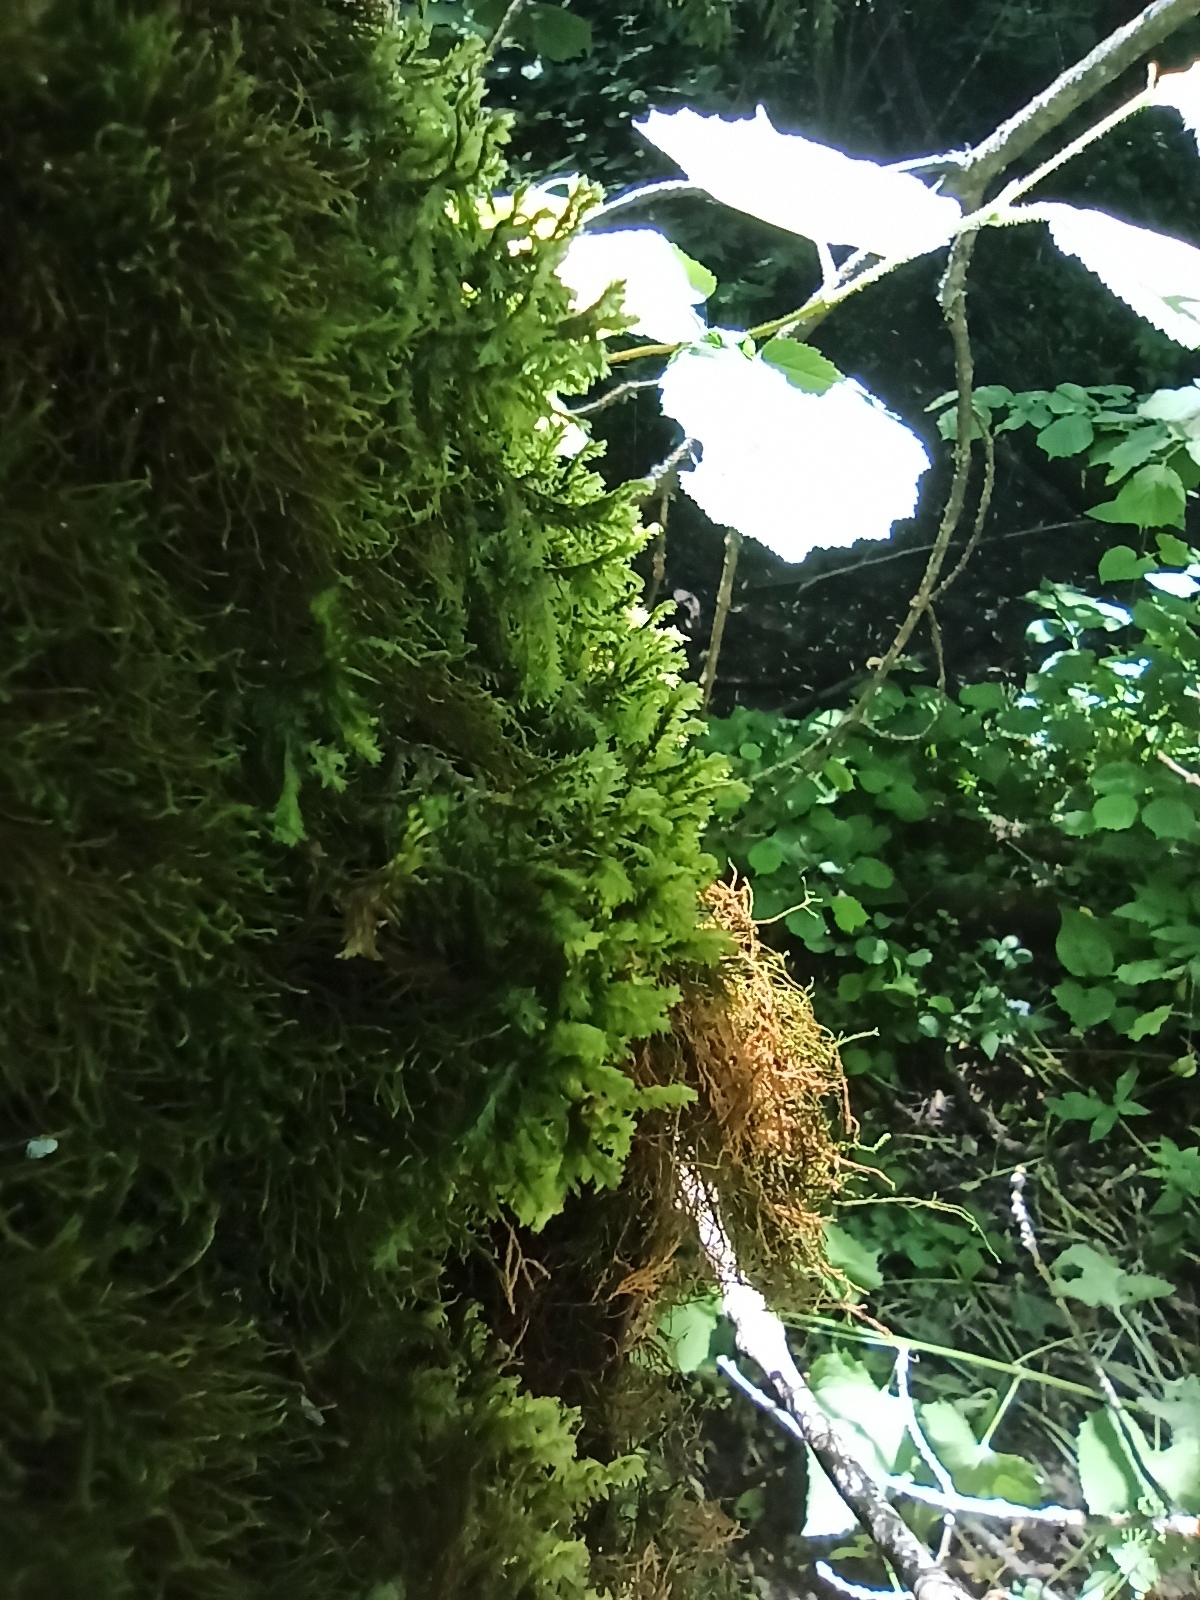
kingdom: Plantae
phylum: Bryophyta
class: Bryopsida
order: Hypnales
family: Neckeraceae
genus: Neckera
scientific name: Neckera pennata
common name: Feathery neckera
